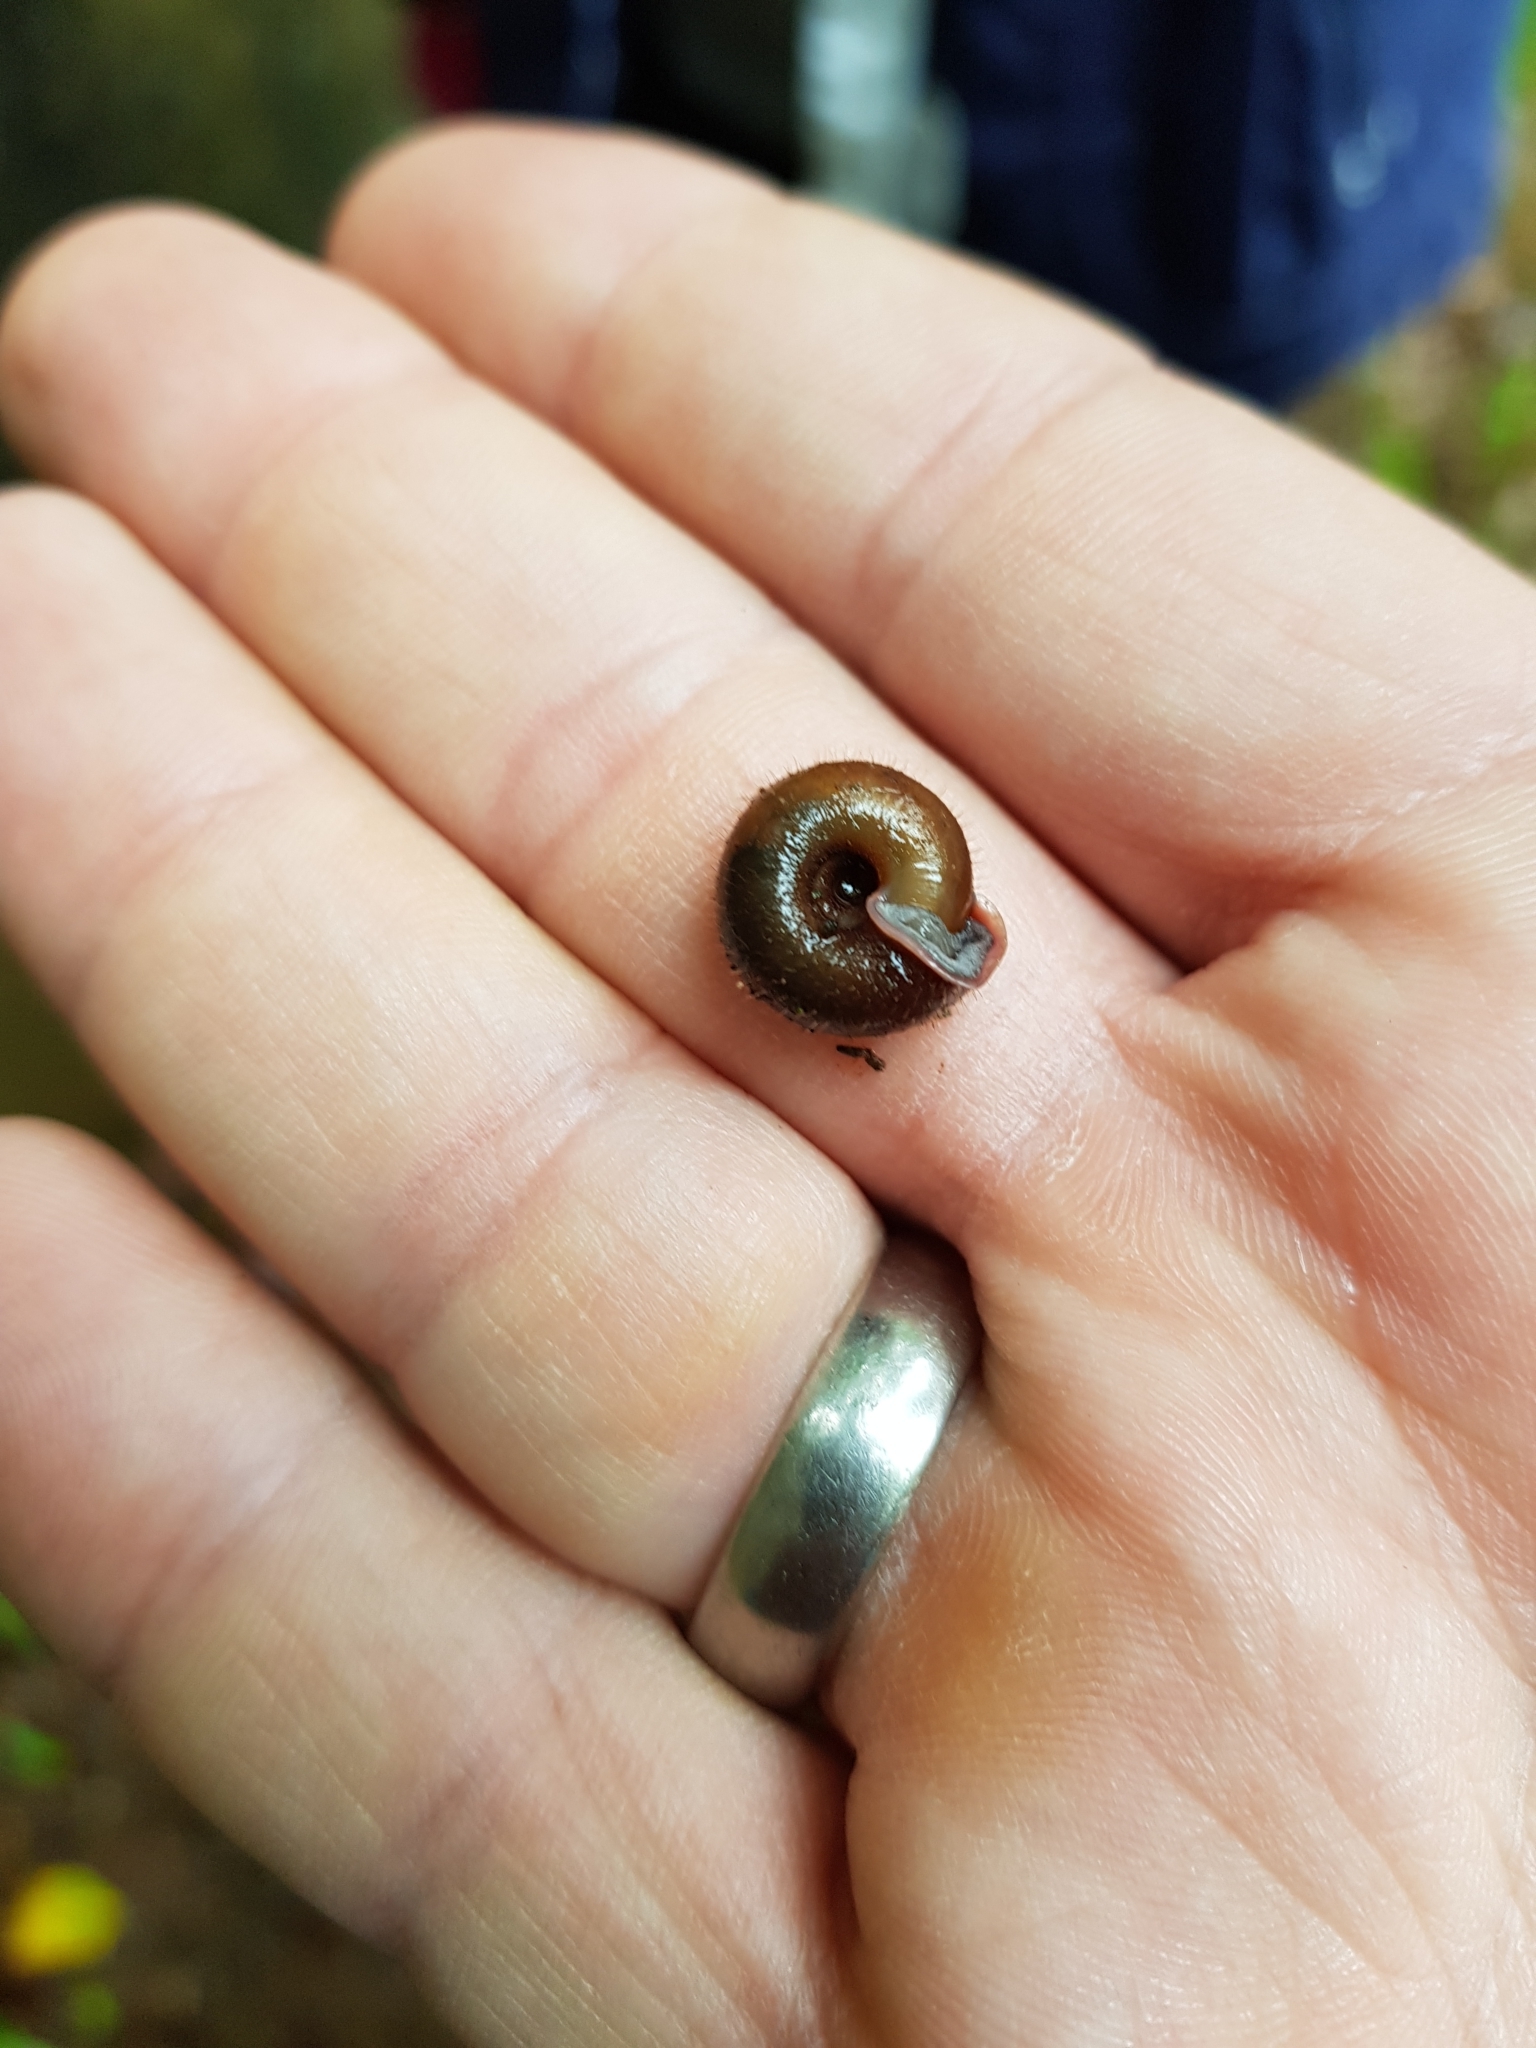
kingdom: Animalia
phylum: Mollusca
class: Gastropoda
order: Stylommatophora
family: Helicodontidae
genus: Helicodonta
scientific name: Helicodonta obvoluta
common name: Cheese snail
